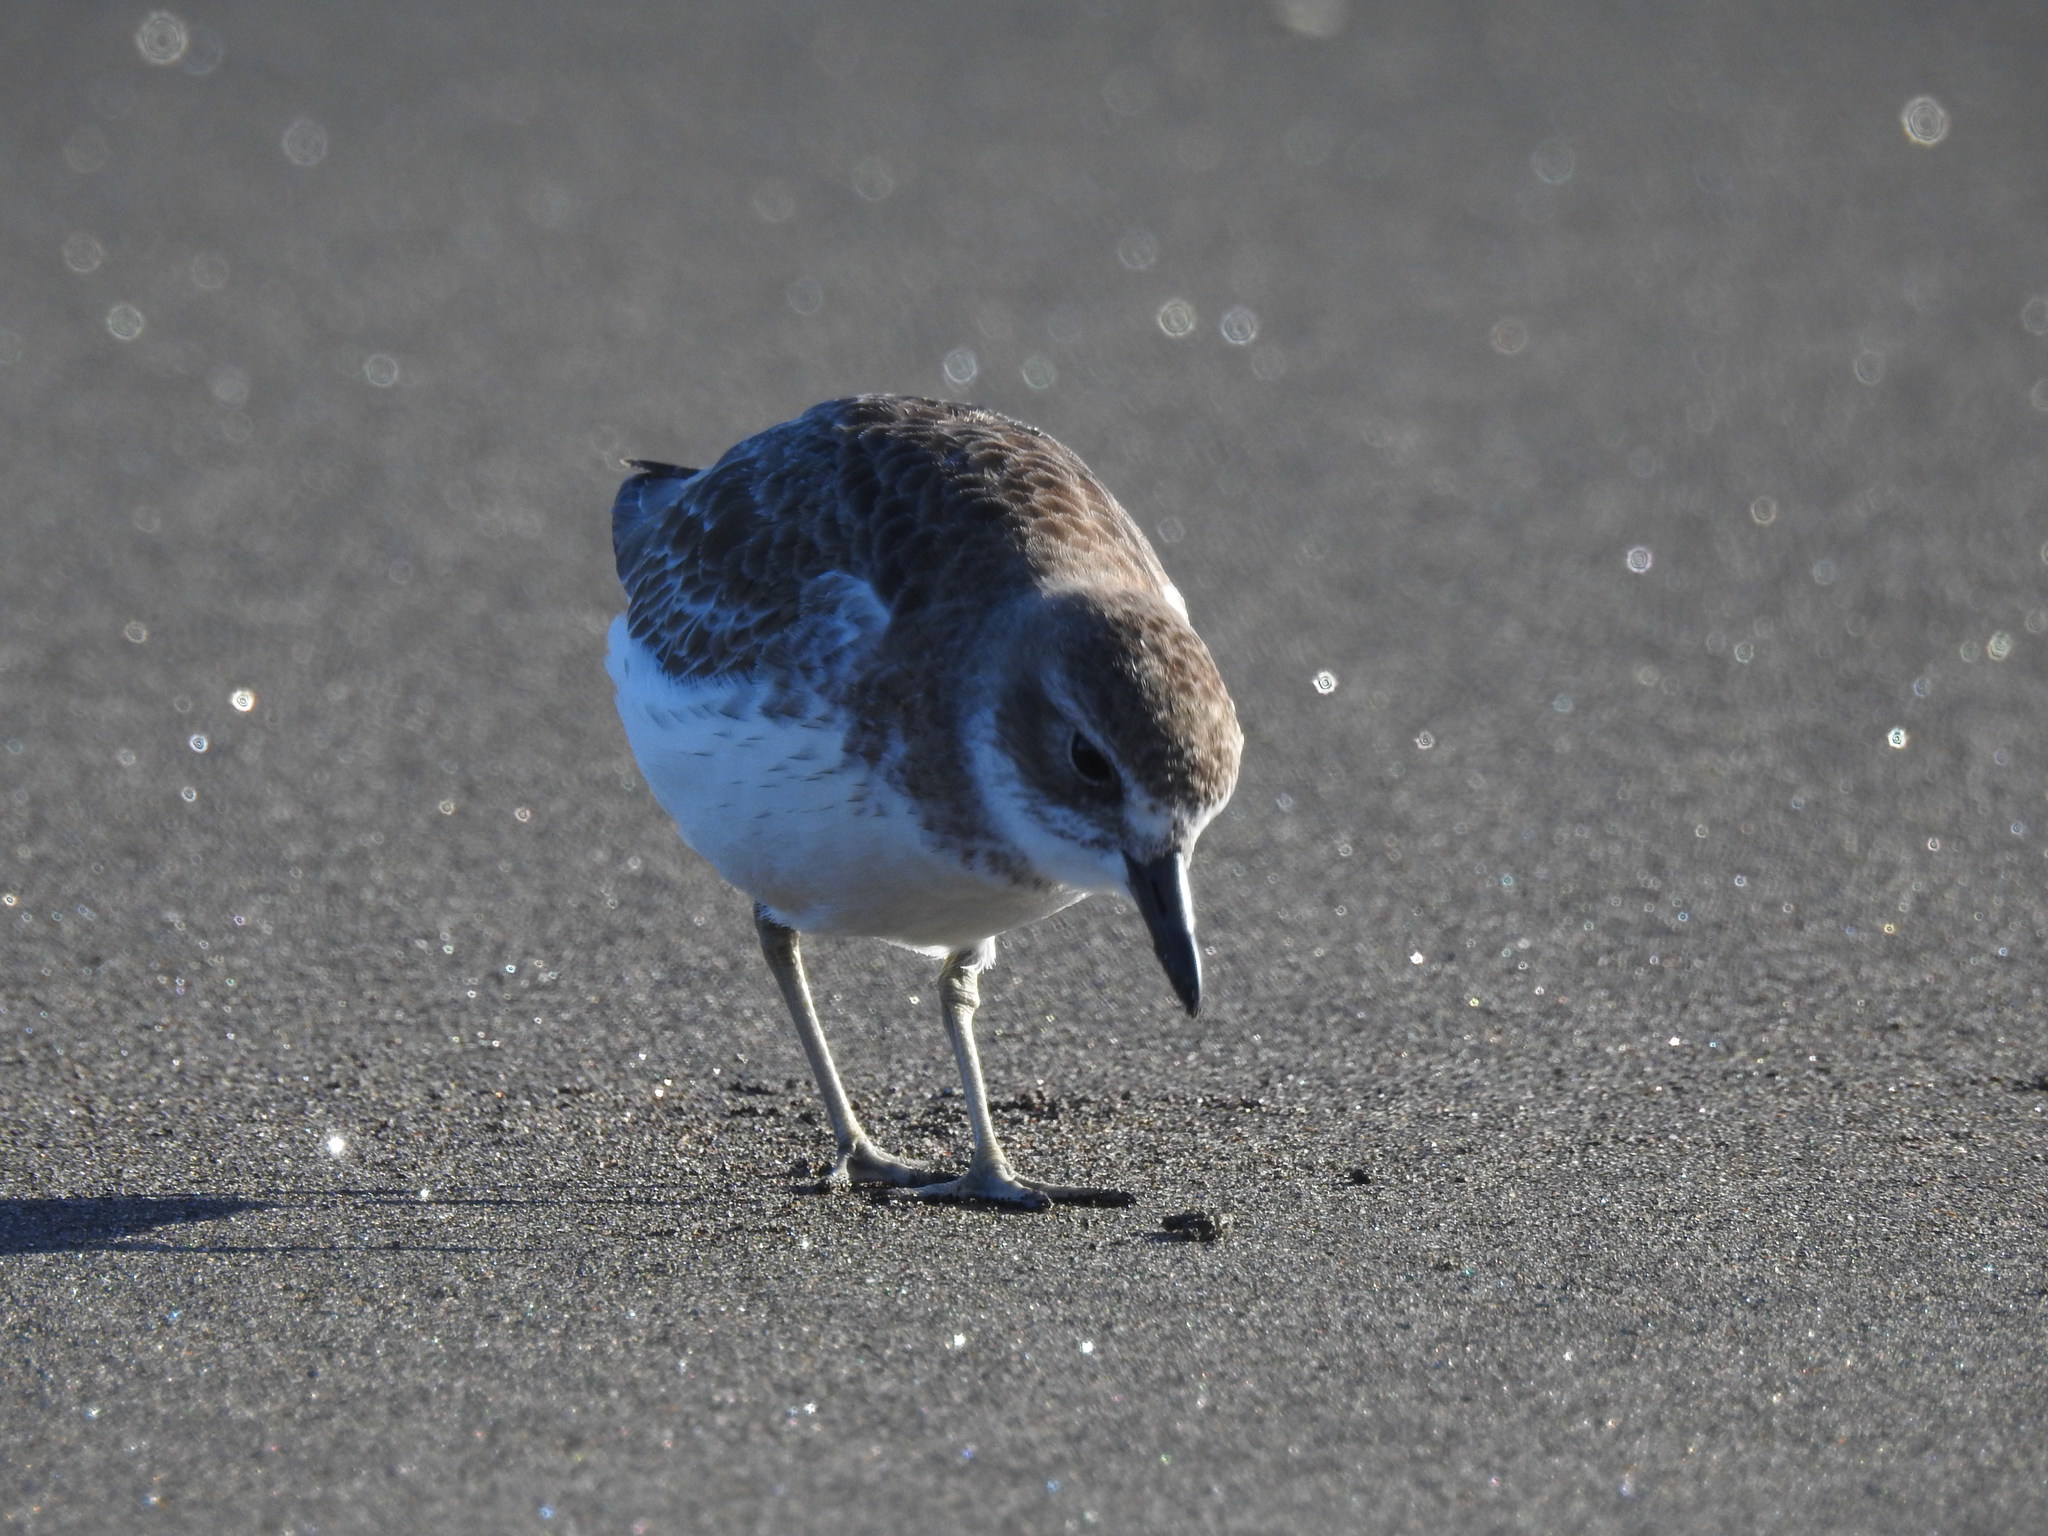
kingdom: Animalia
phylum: Chordata
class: Aves
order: Charadriiformes
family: Charadriidae
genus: Anarhynchus
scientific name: Anarhynchus
